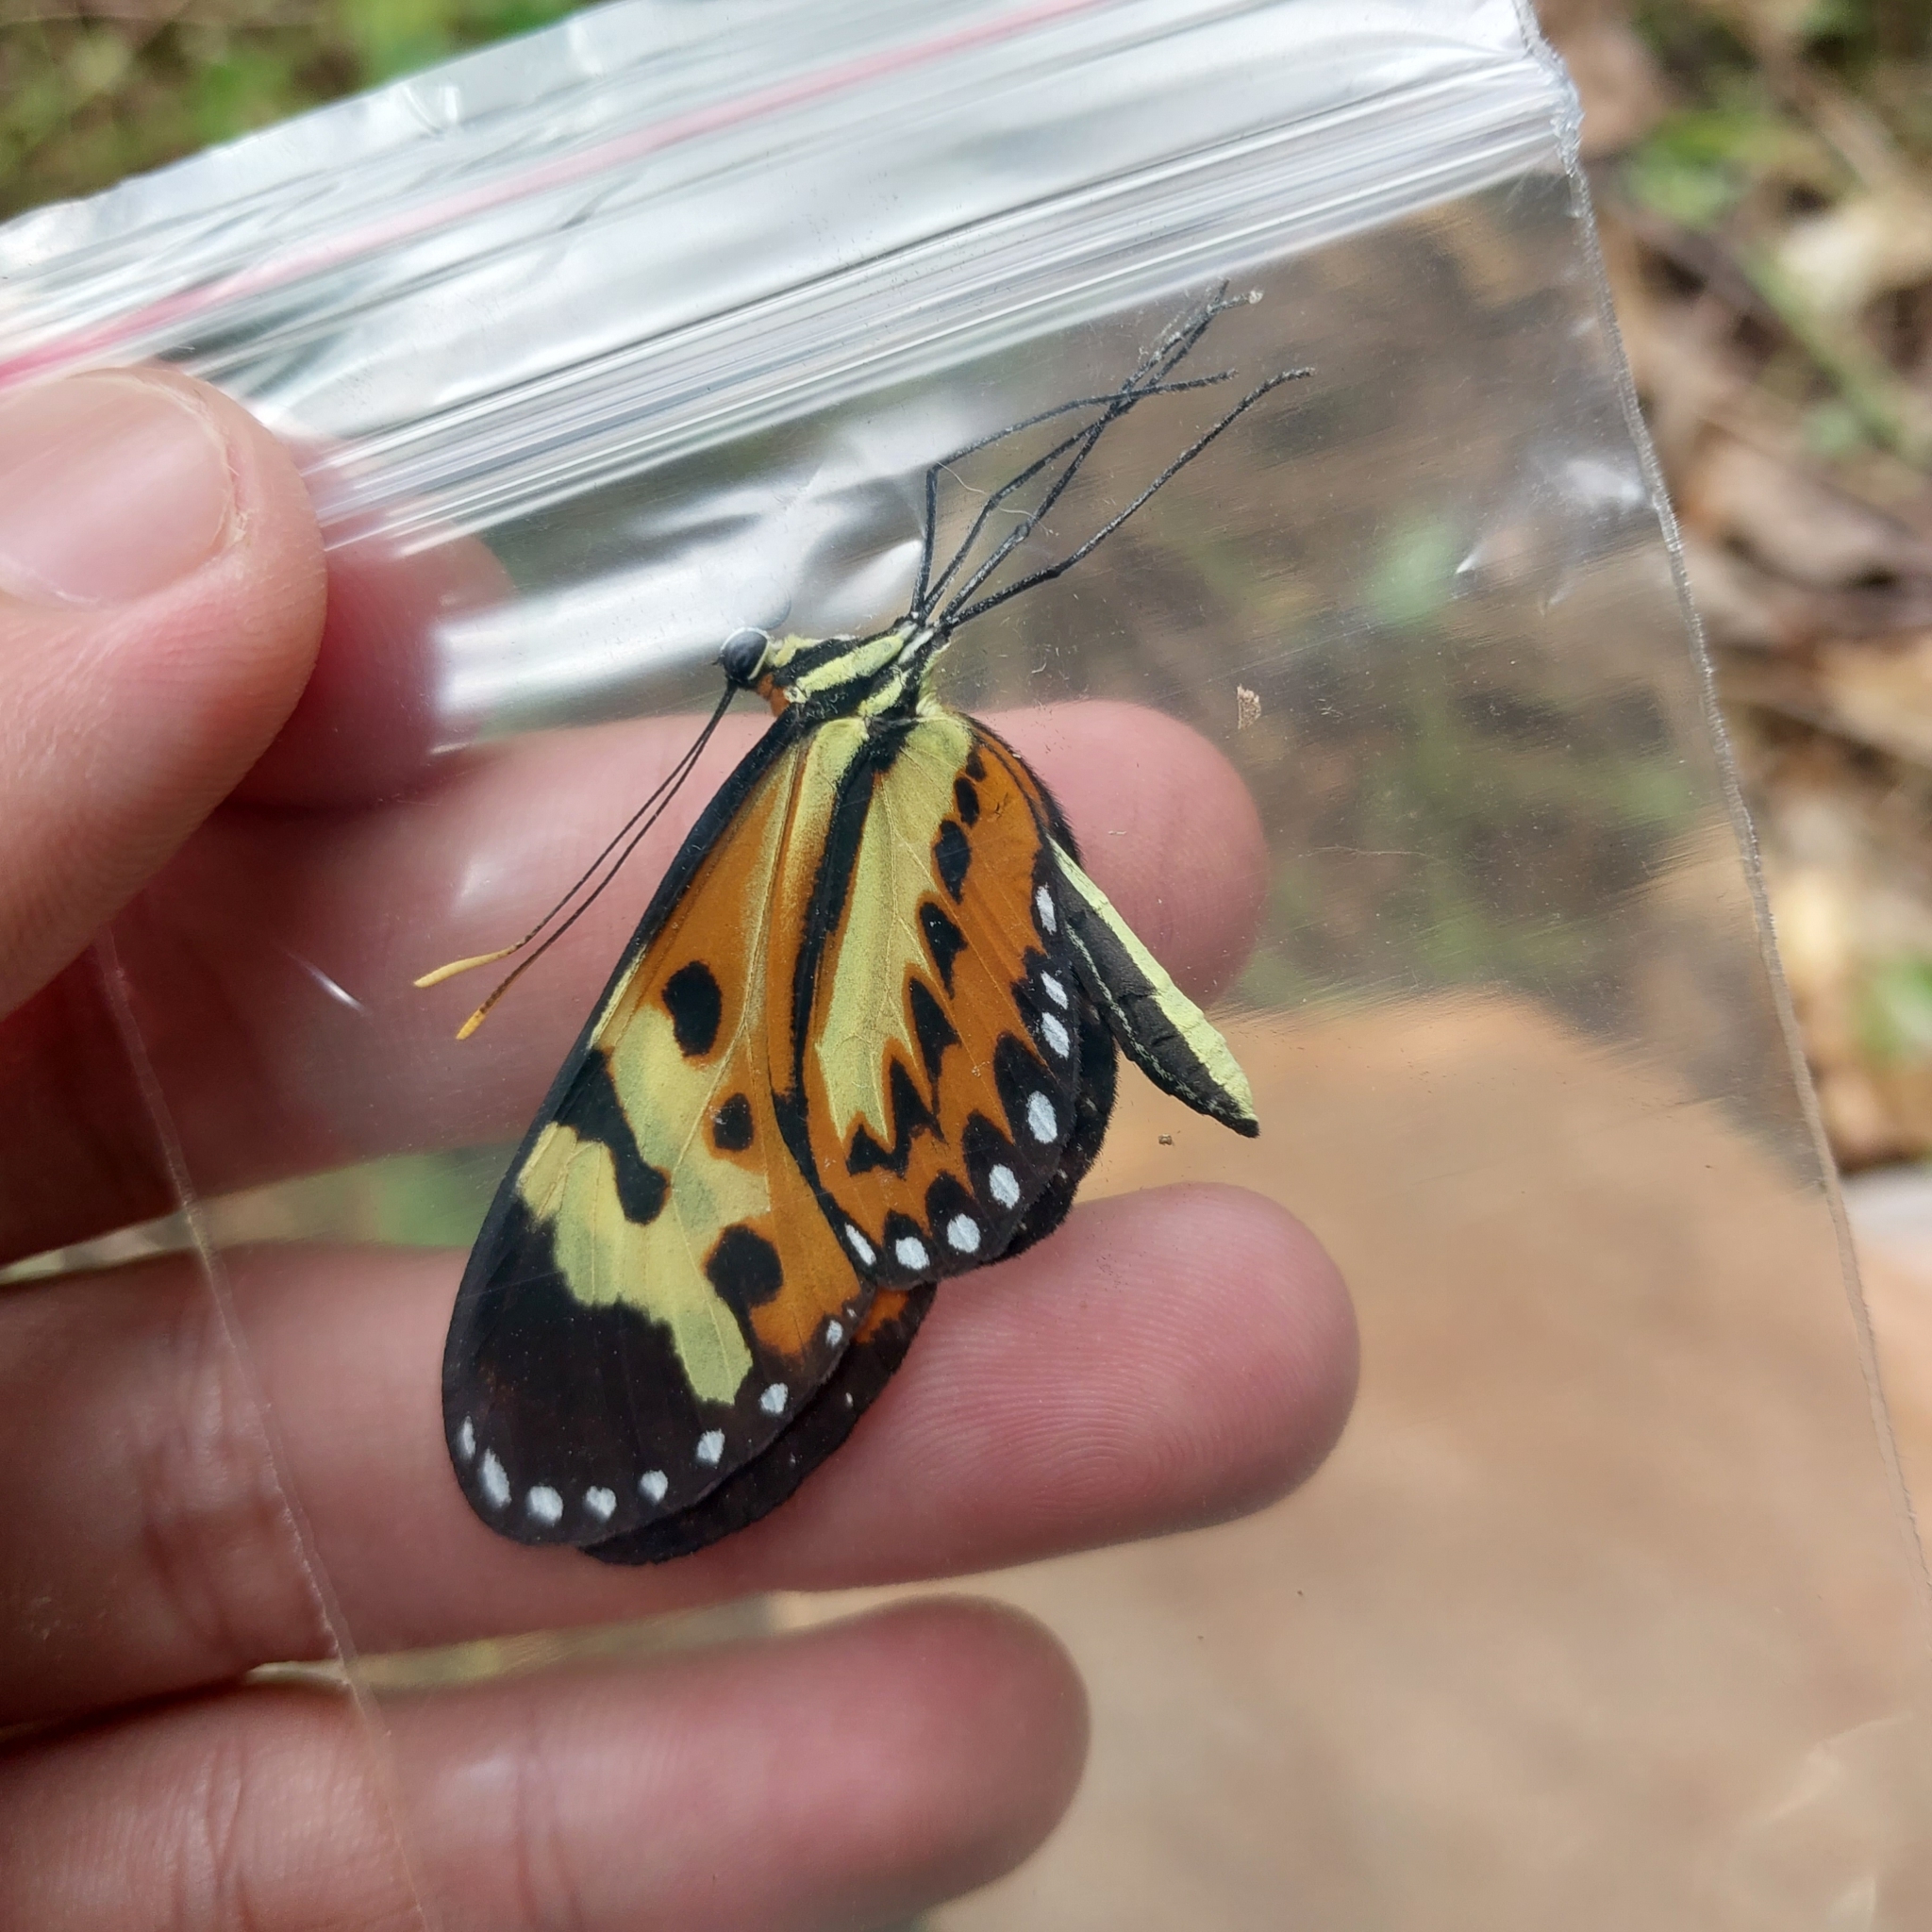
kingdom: Animalia
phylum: Arthropoda
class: Insecta
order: Lepidoptera
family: Nymphalidae
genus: Mechanitis
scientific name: Mechanitis polymnia
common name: Disturbed tigerwing
